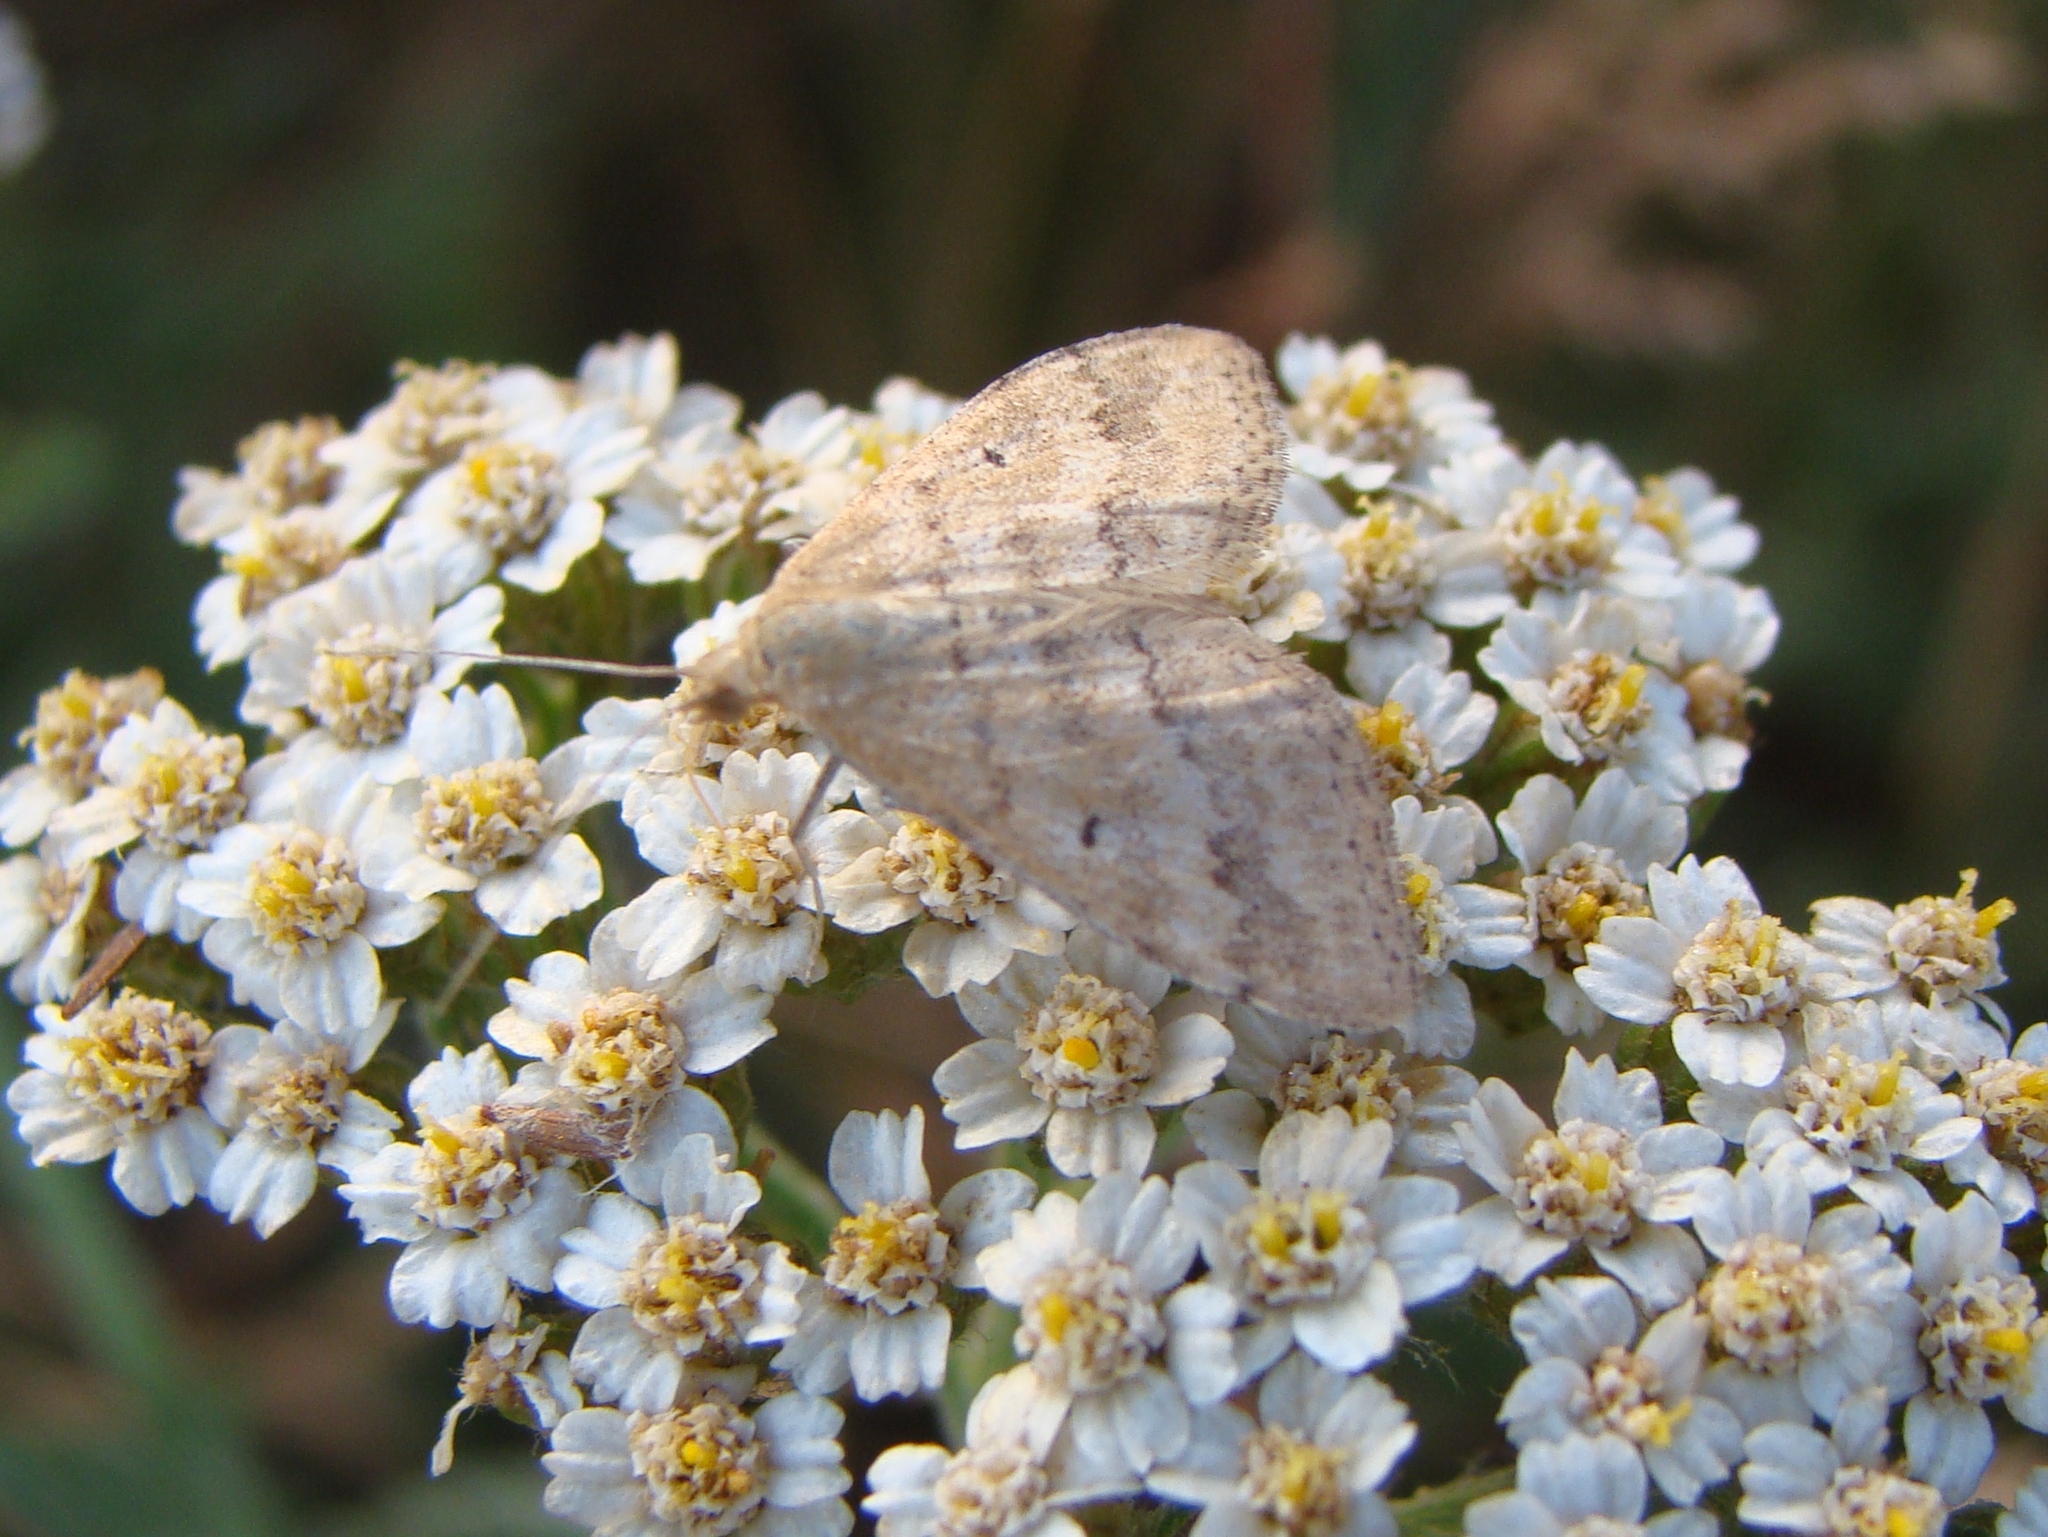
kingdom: Animalia
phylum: Arthropoda
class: Insecta
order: Lepidoptera
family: Geometridae
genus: Scopula
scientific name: Scopula rubraria
